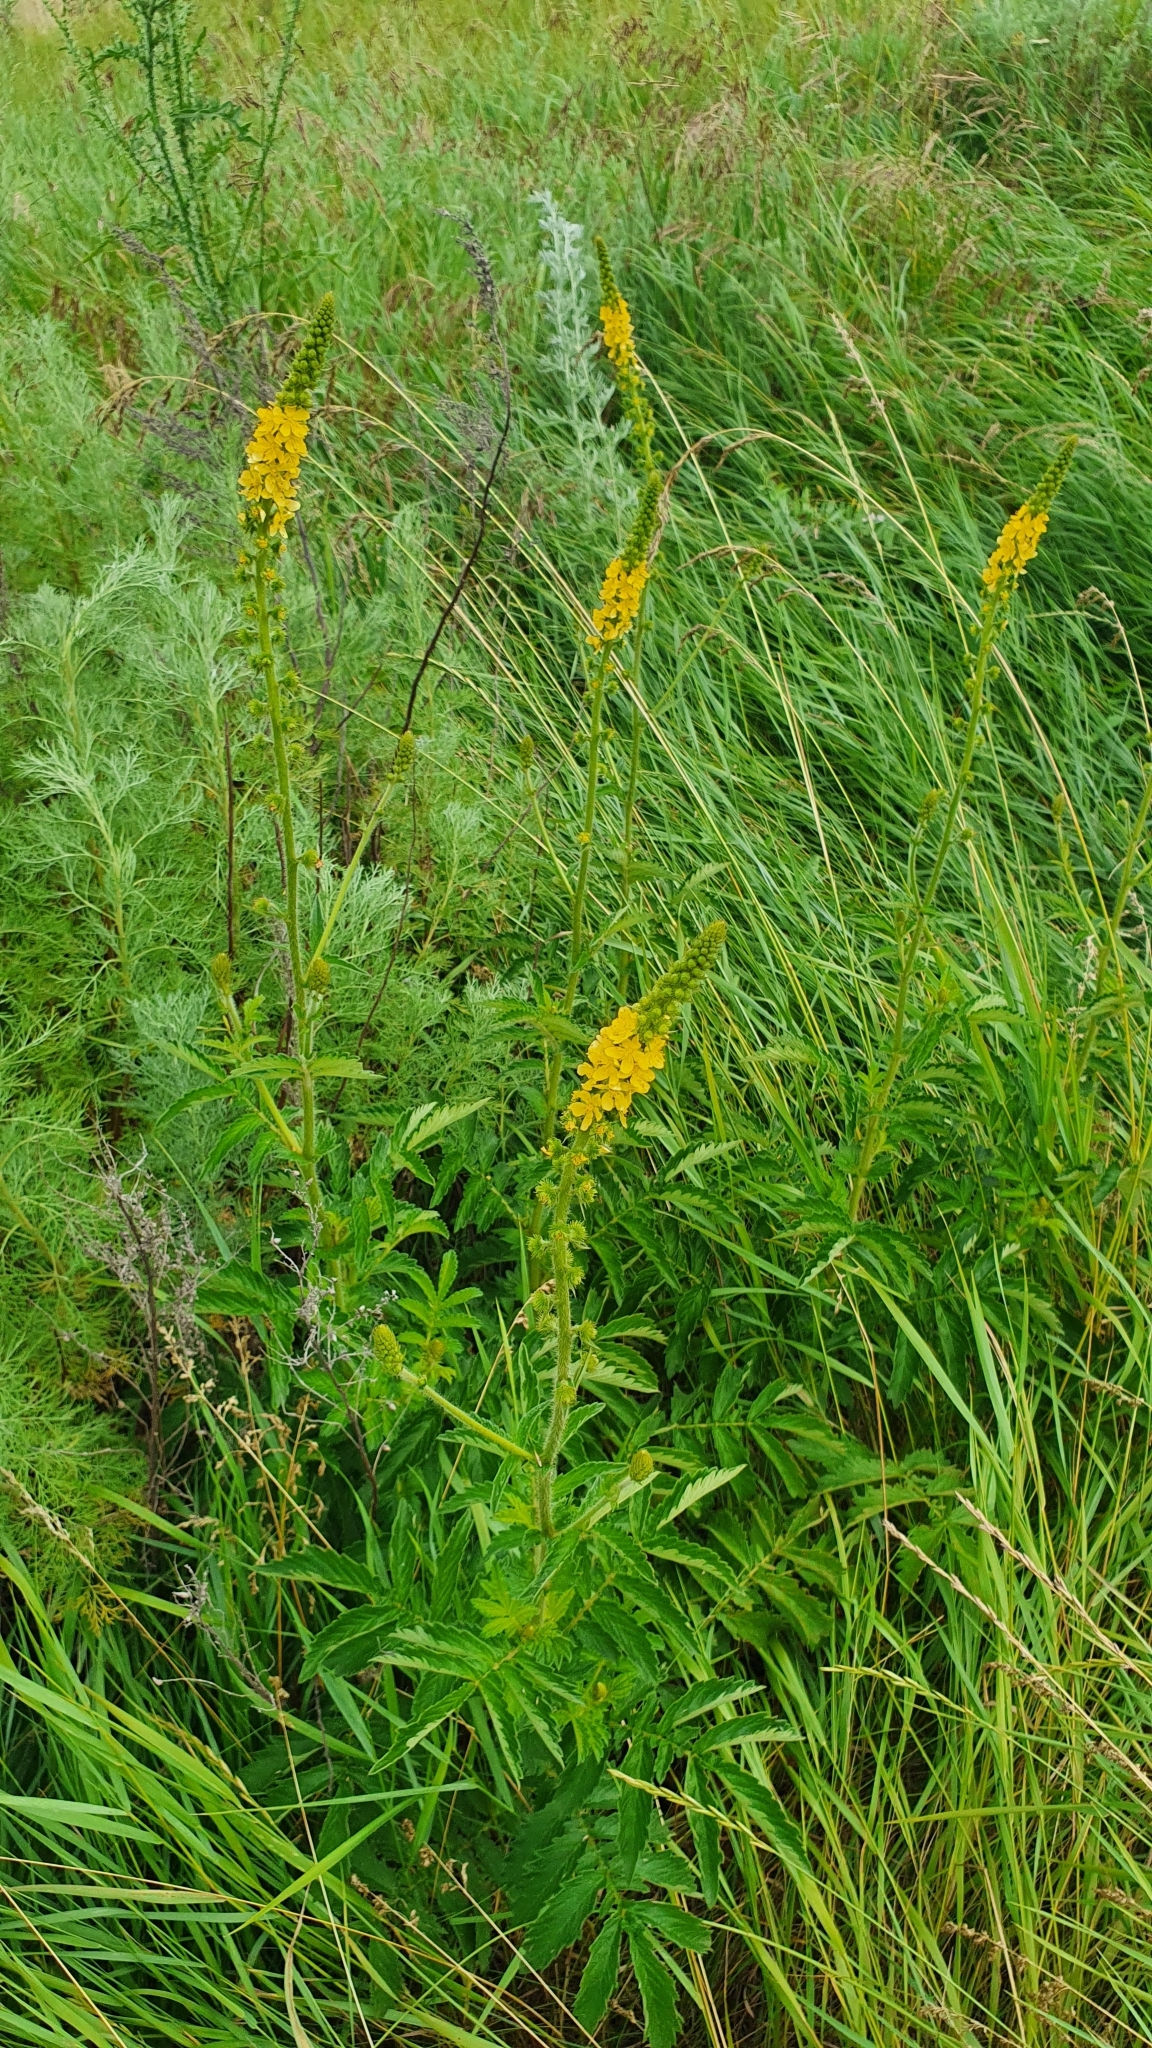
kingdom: Plantae
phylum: Tracheophyta
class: Magnoliopsida
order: Rosales
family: Rosaceae
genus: Agrimonia
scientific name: Agrimonia eupatoria
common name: Agrimony
